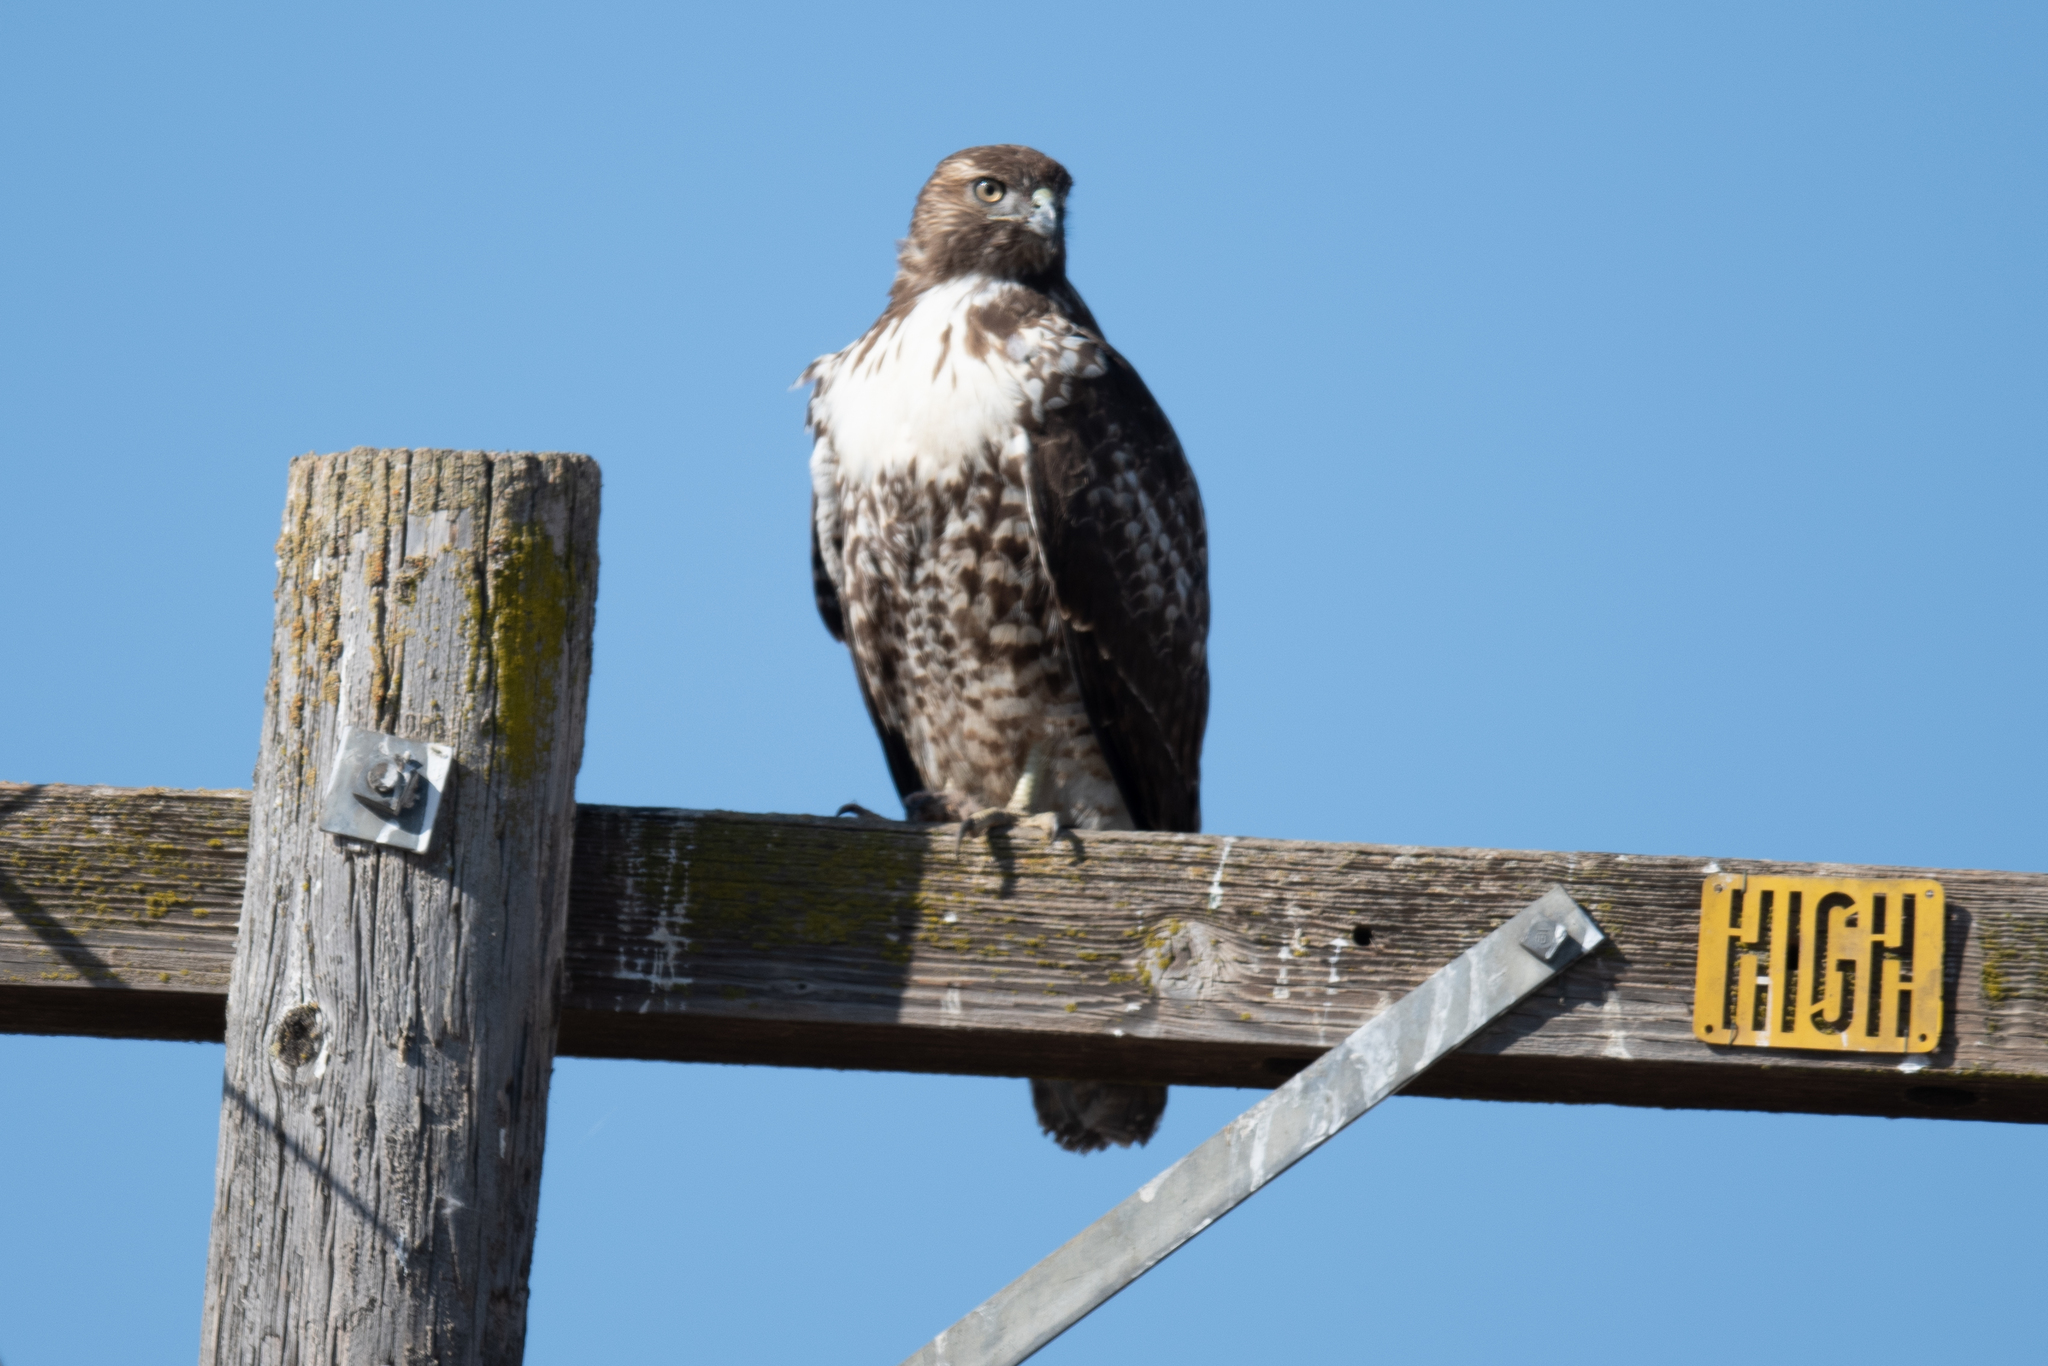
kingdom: Animalia
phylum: Chordata
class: Aves
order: Accipitriformes
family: Accipitridae
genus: Buteo
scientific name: Buteo jamaicensis
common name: Red-tailed hawk
